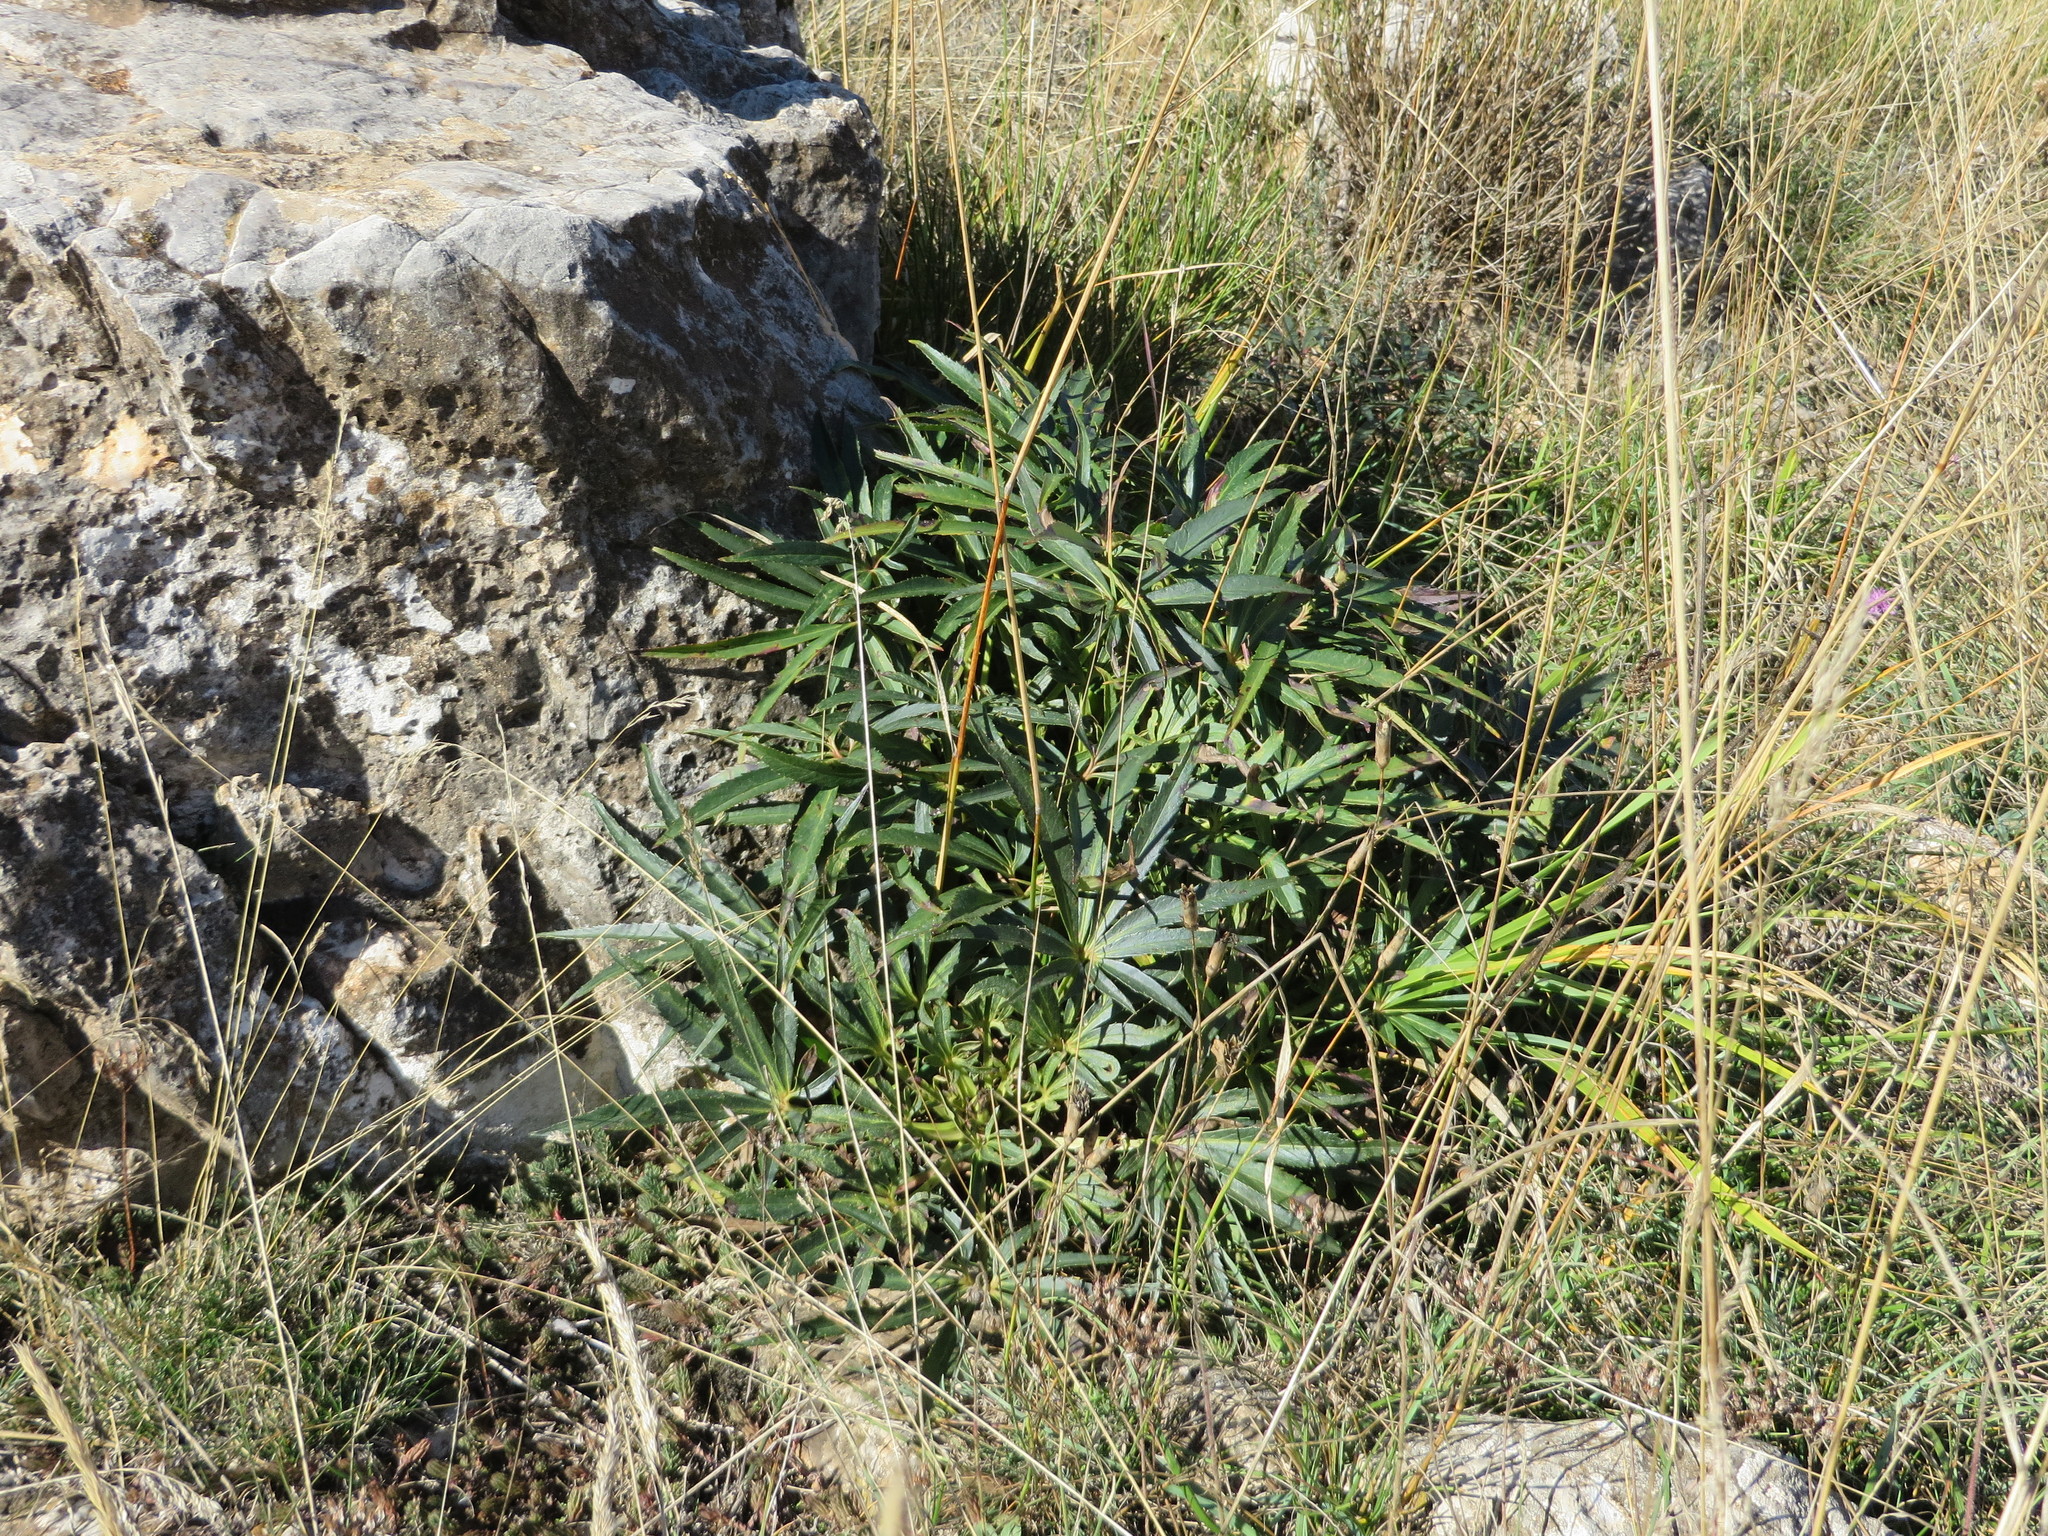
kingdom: Plantae
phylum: Tracheophyta
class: Magnoliopsida
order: Ranunculales
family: Ranunculaceae
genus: Helleborus
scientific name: Helleborus foetidus
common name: Stinking hellebore
